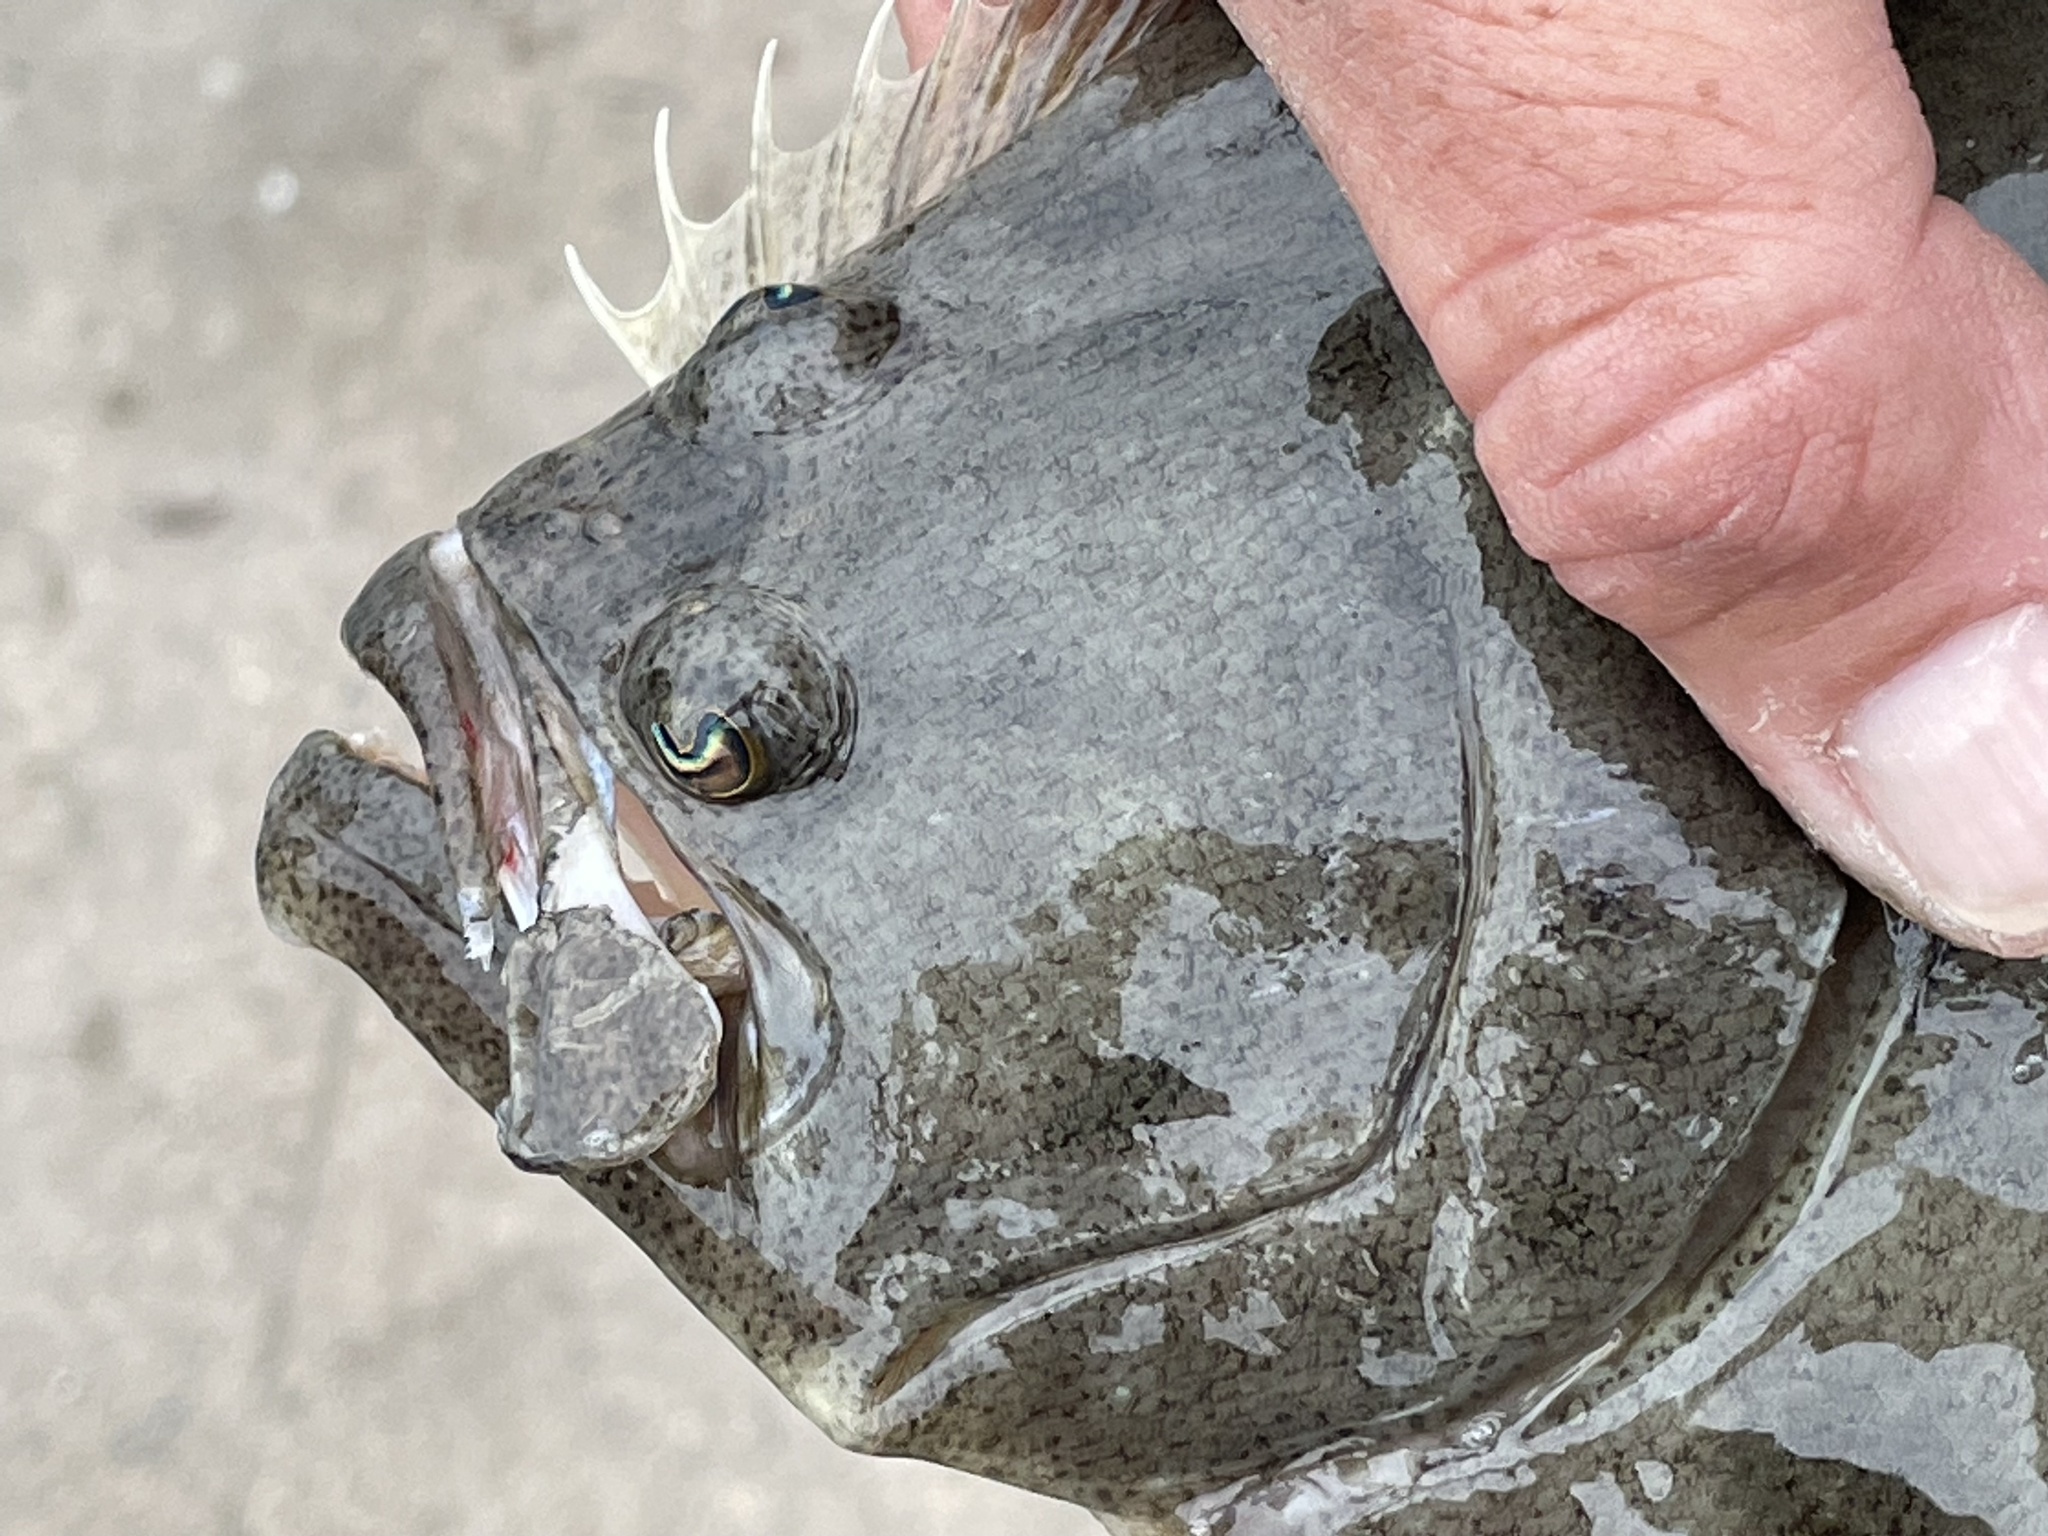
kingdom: Animalia
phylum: Chordata
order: Pleuronectiformes
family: Paralichthyidae
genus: Paralichthys
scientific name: Paralichthys dentatus
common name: Summer flounder
